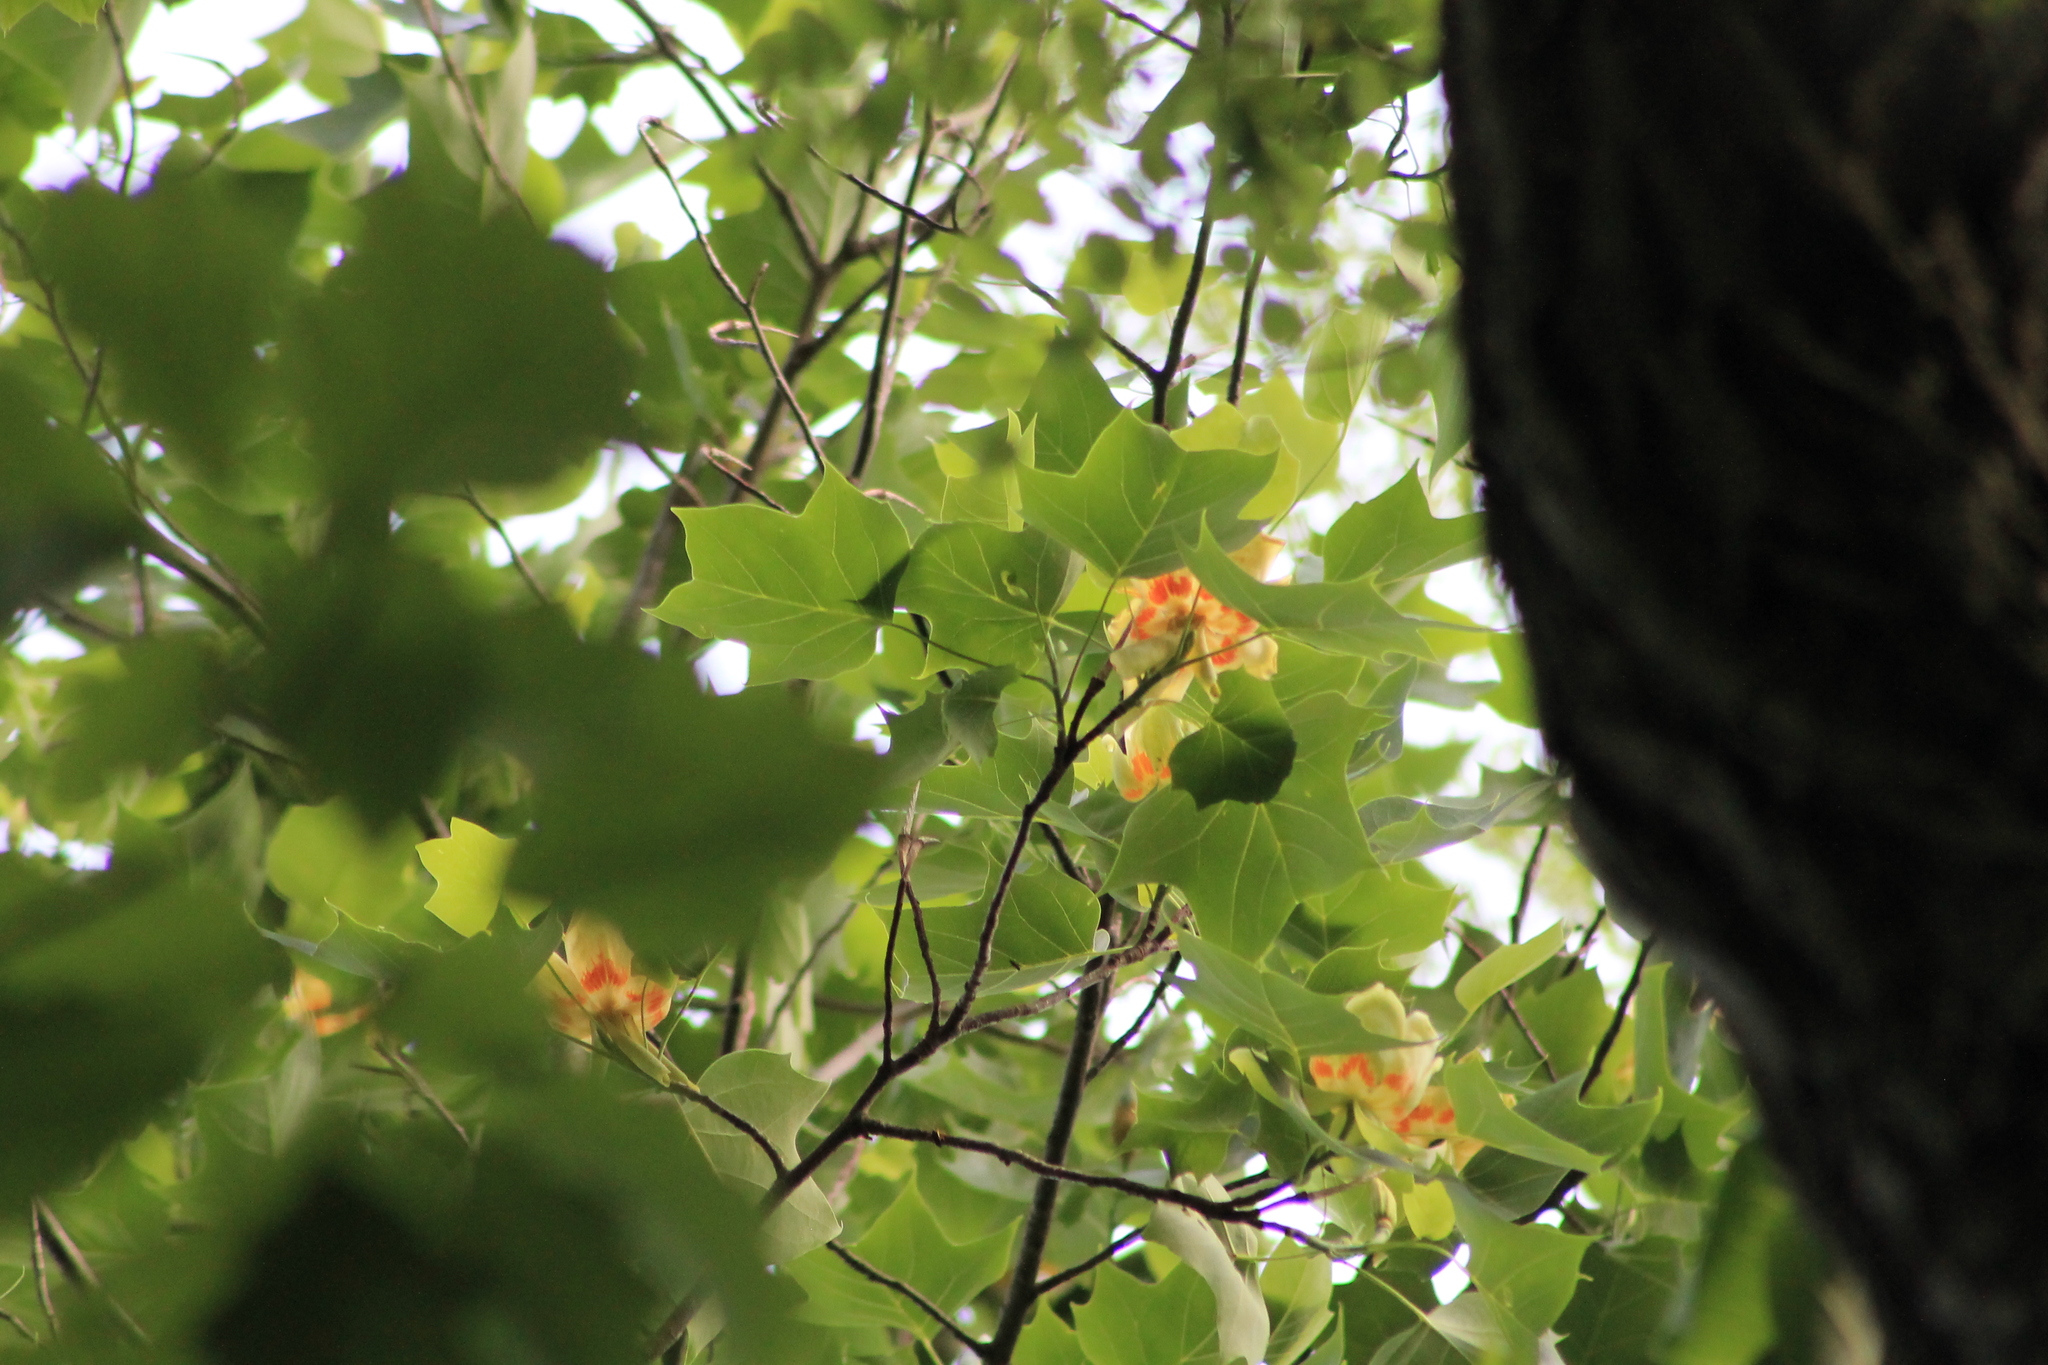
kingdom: Plantae
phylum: Tracheophyta
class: Magnoliopsida
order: Magnoliales
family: Magnoliaceae
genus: Liriodendron
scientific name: Liriodendron tulipifera
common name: Tulip tree
